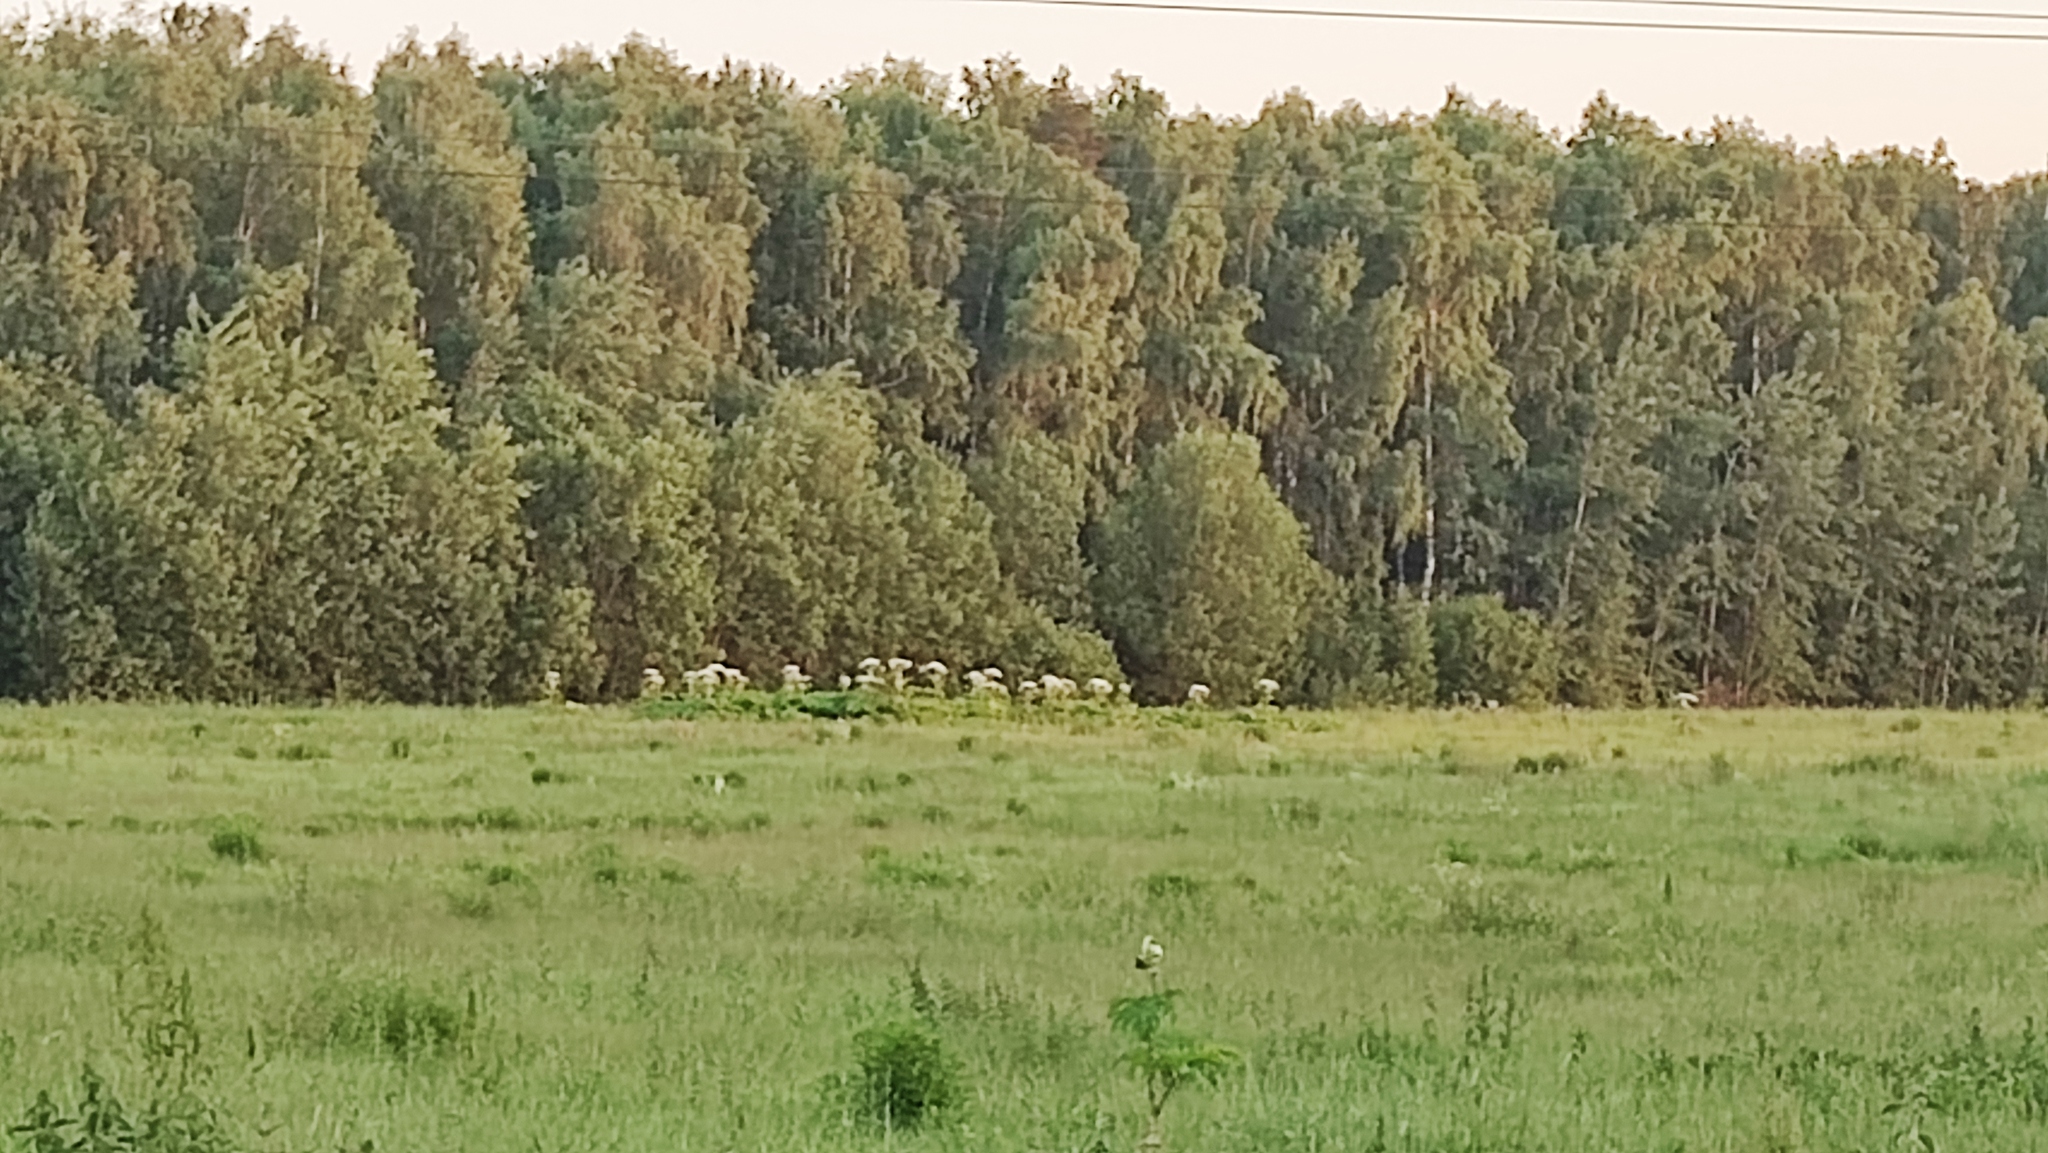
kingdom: Plantae
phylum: Tracheophyta
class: Magnoliopsida
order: Apiales
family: Apiaceae
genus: Heracleum
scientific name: Heracleum sosnowskyi
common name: Sosnowsky's hogweed
